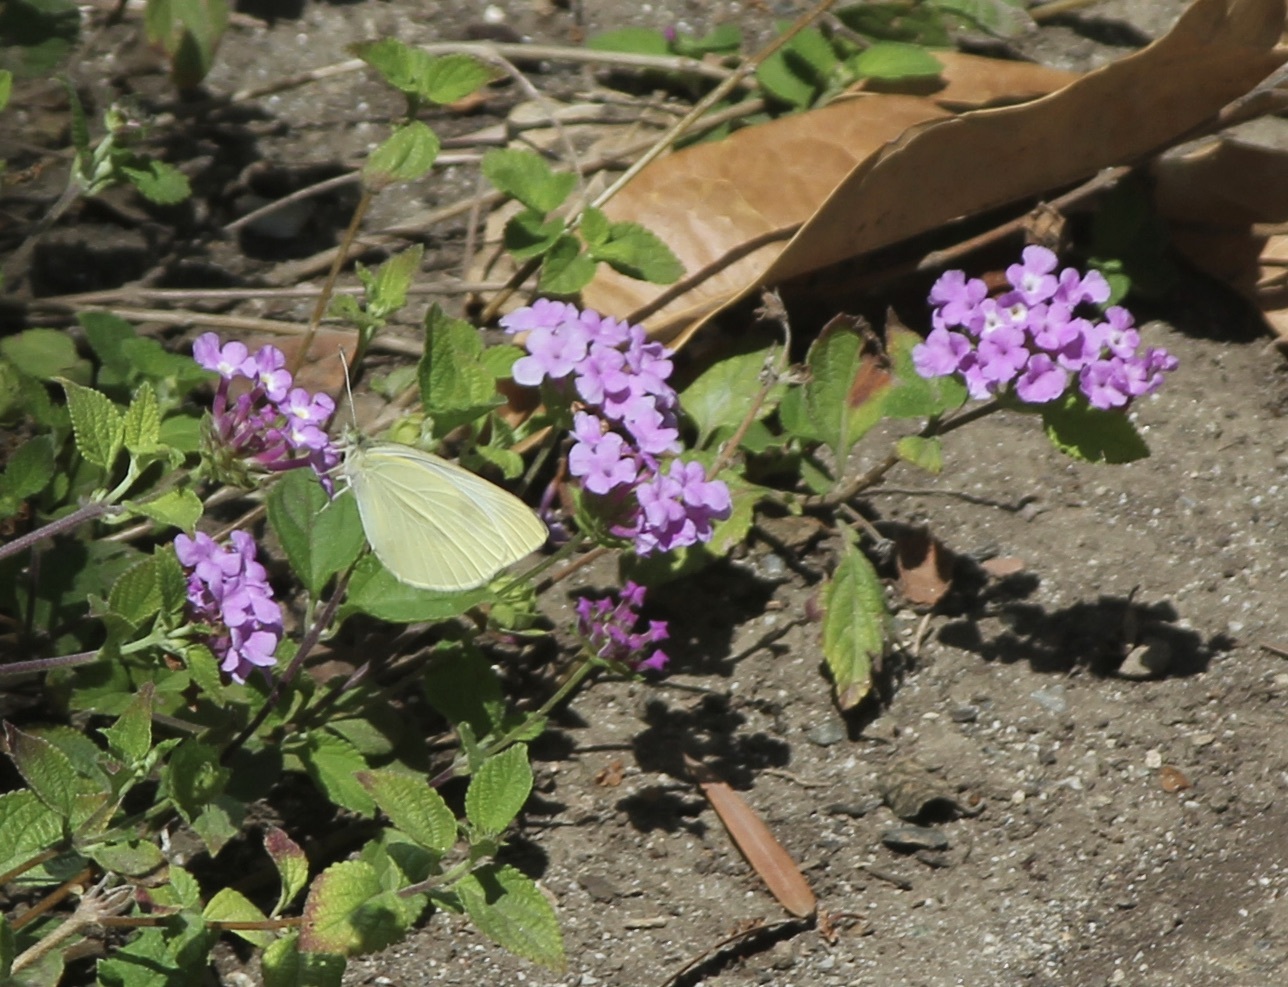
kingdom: Animalia
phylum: Arthropoda
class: Insecta
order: Lepidoptera
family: Pieridae
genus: Pieris
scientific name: Pieris rapae
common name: Small white
